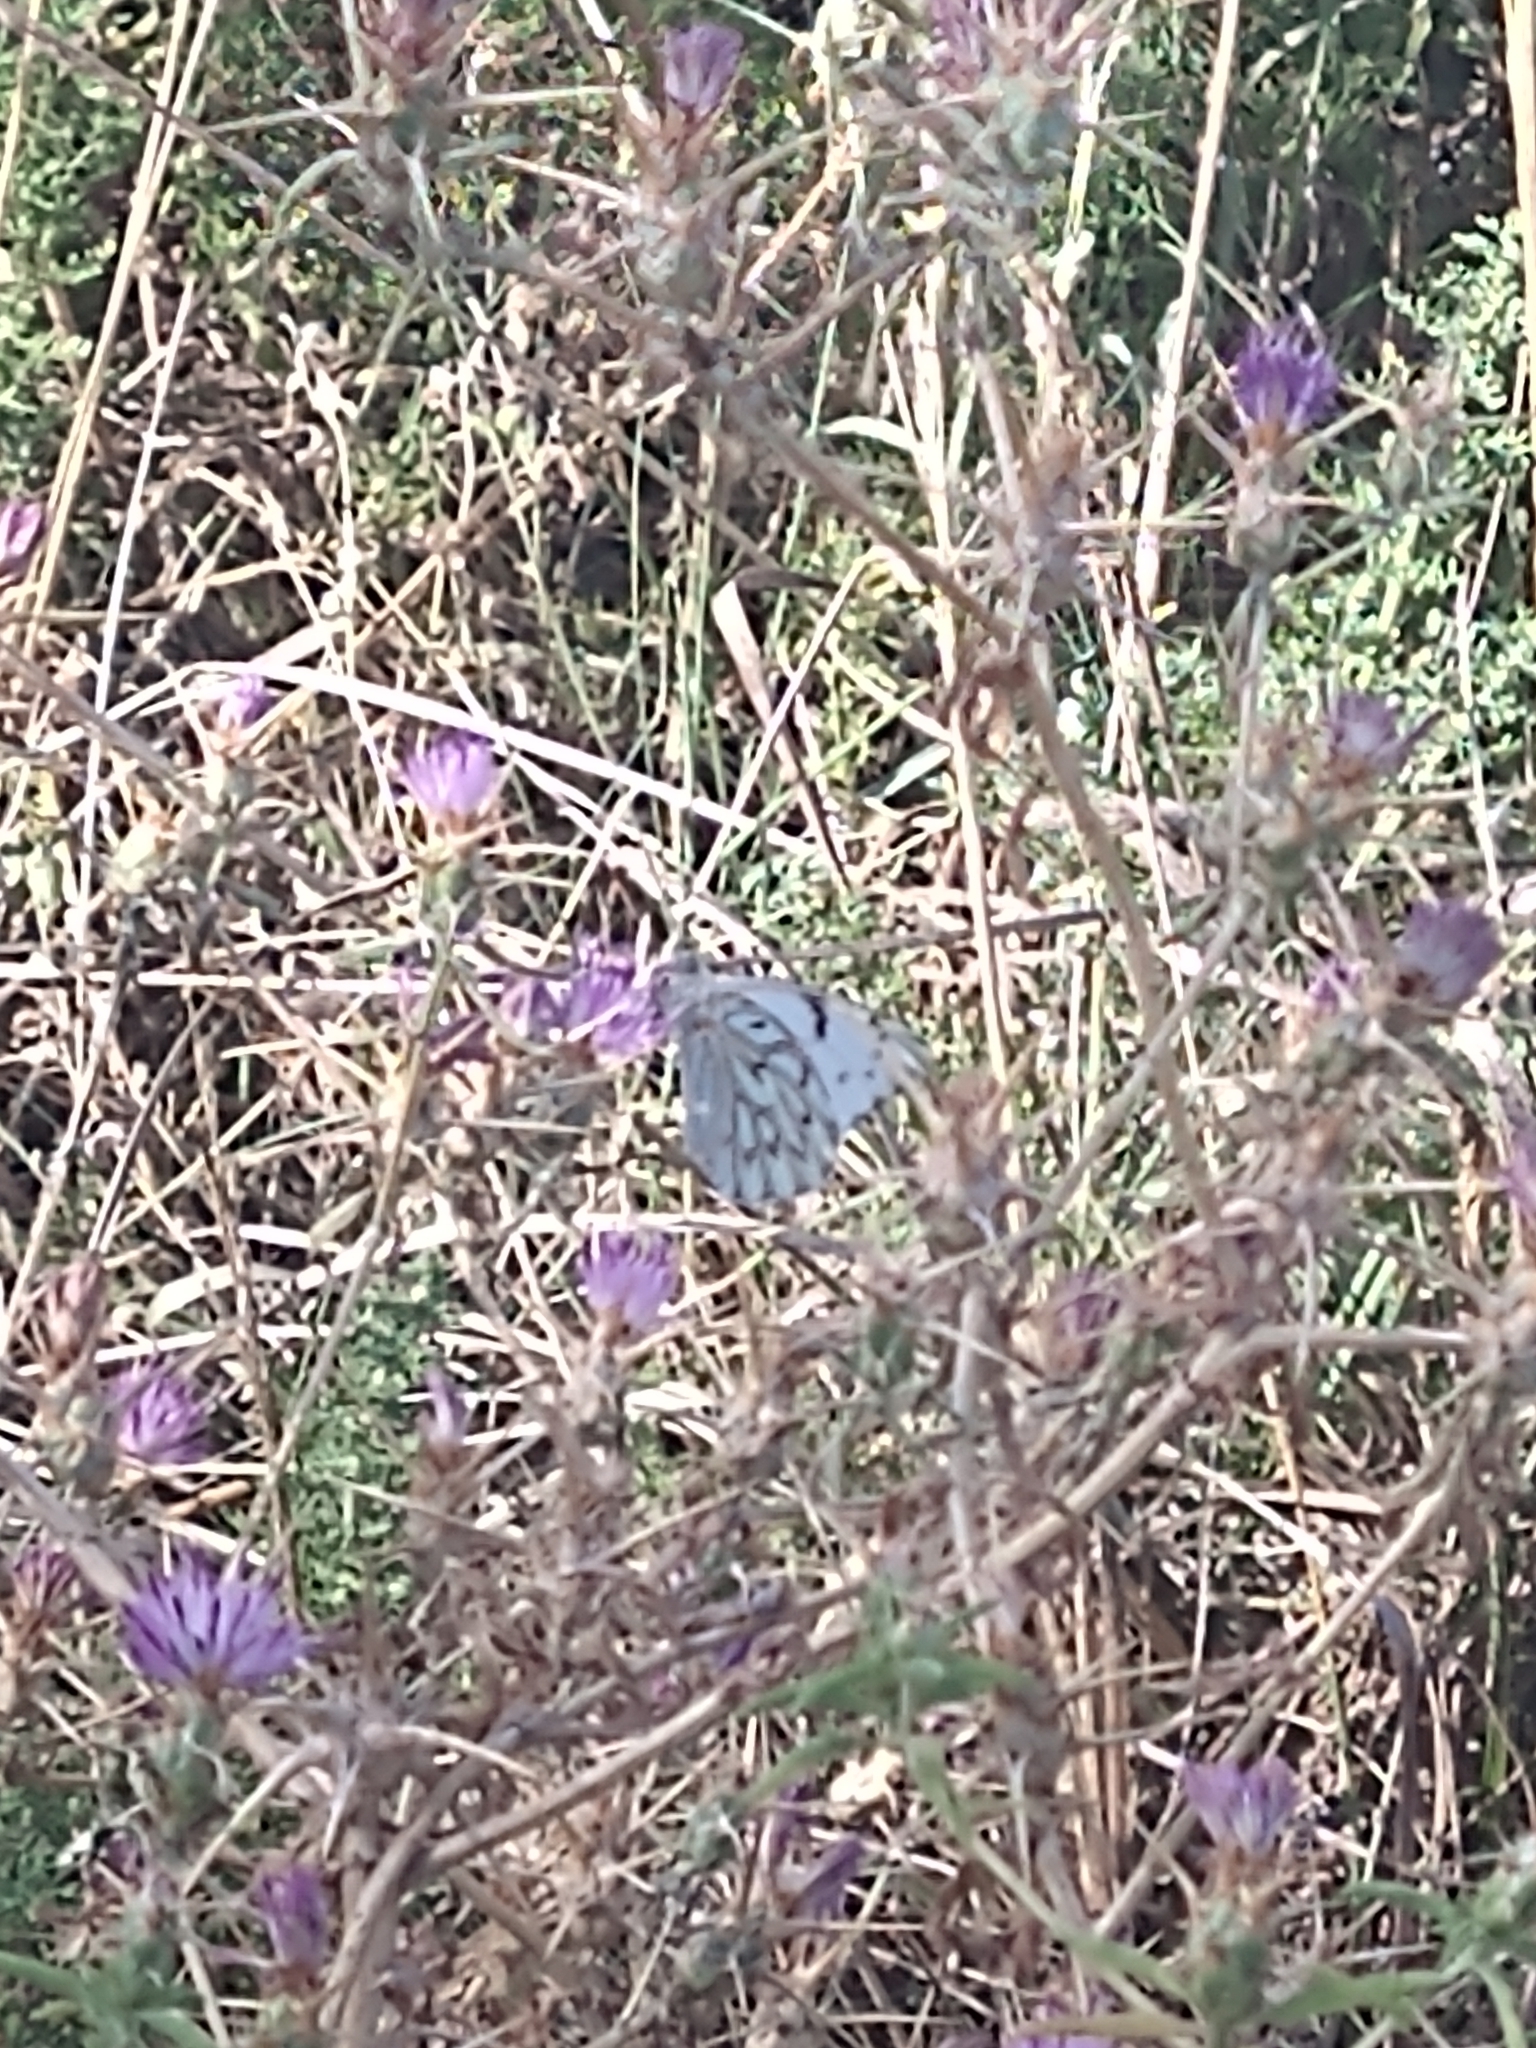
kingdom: Animalia
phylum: Arthropoda
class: Insecta
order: Lepidoptera
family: Pieridae
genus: Tatochila
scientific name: Tatochila autodice
